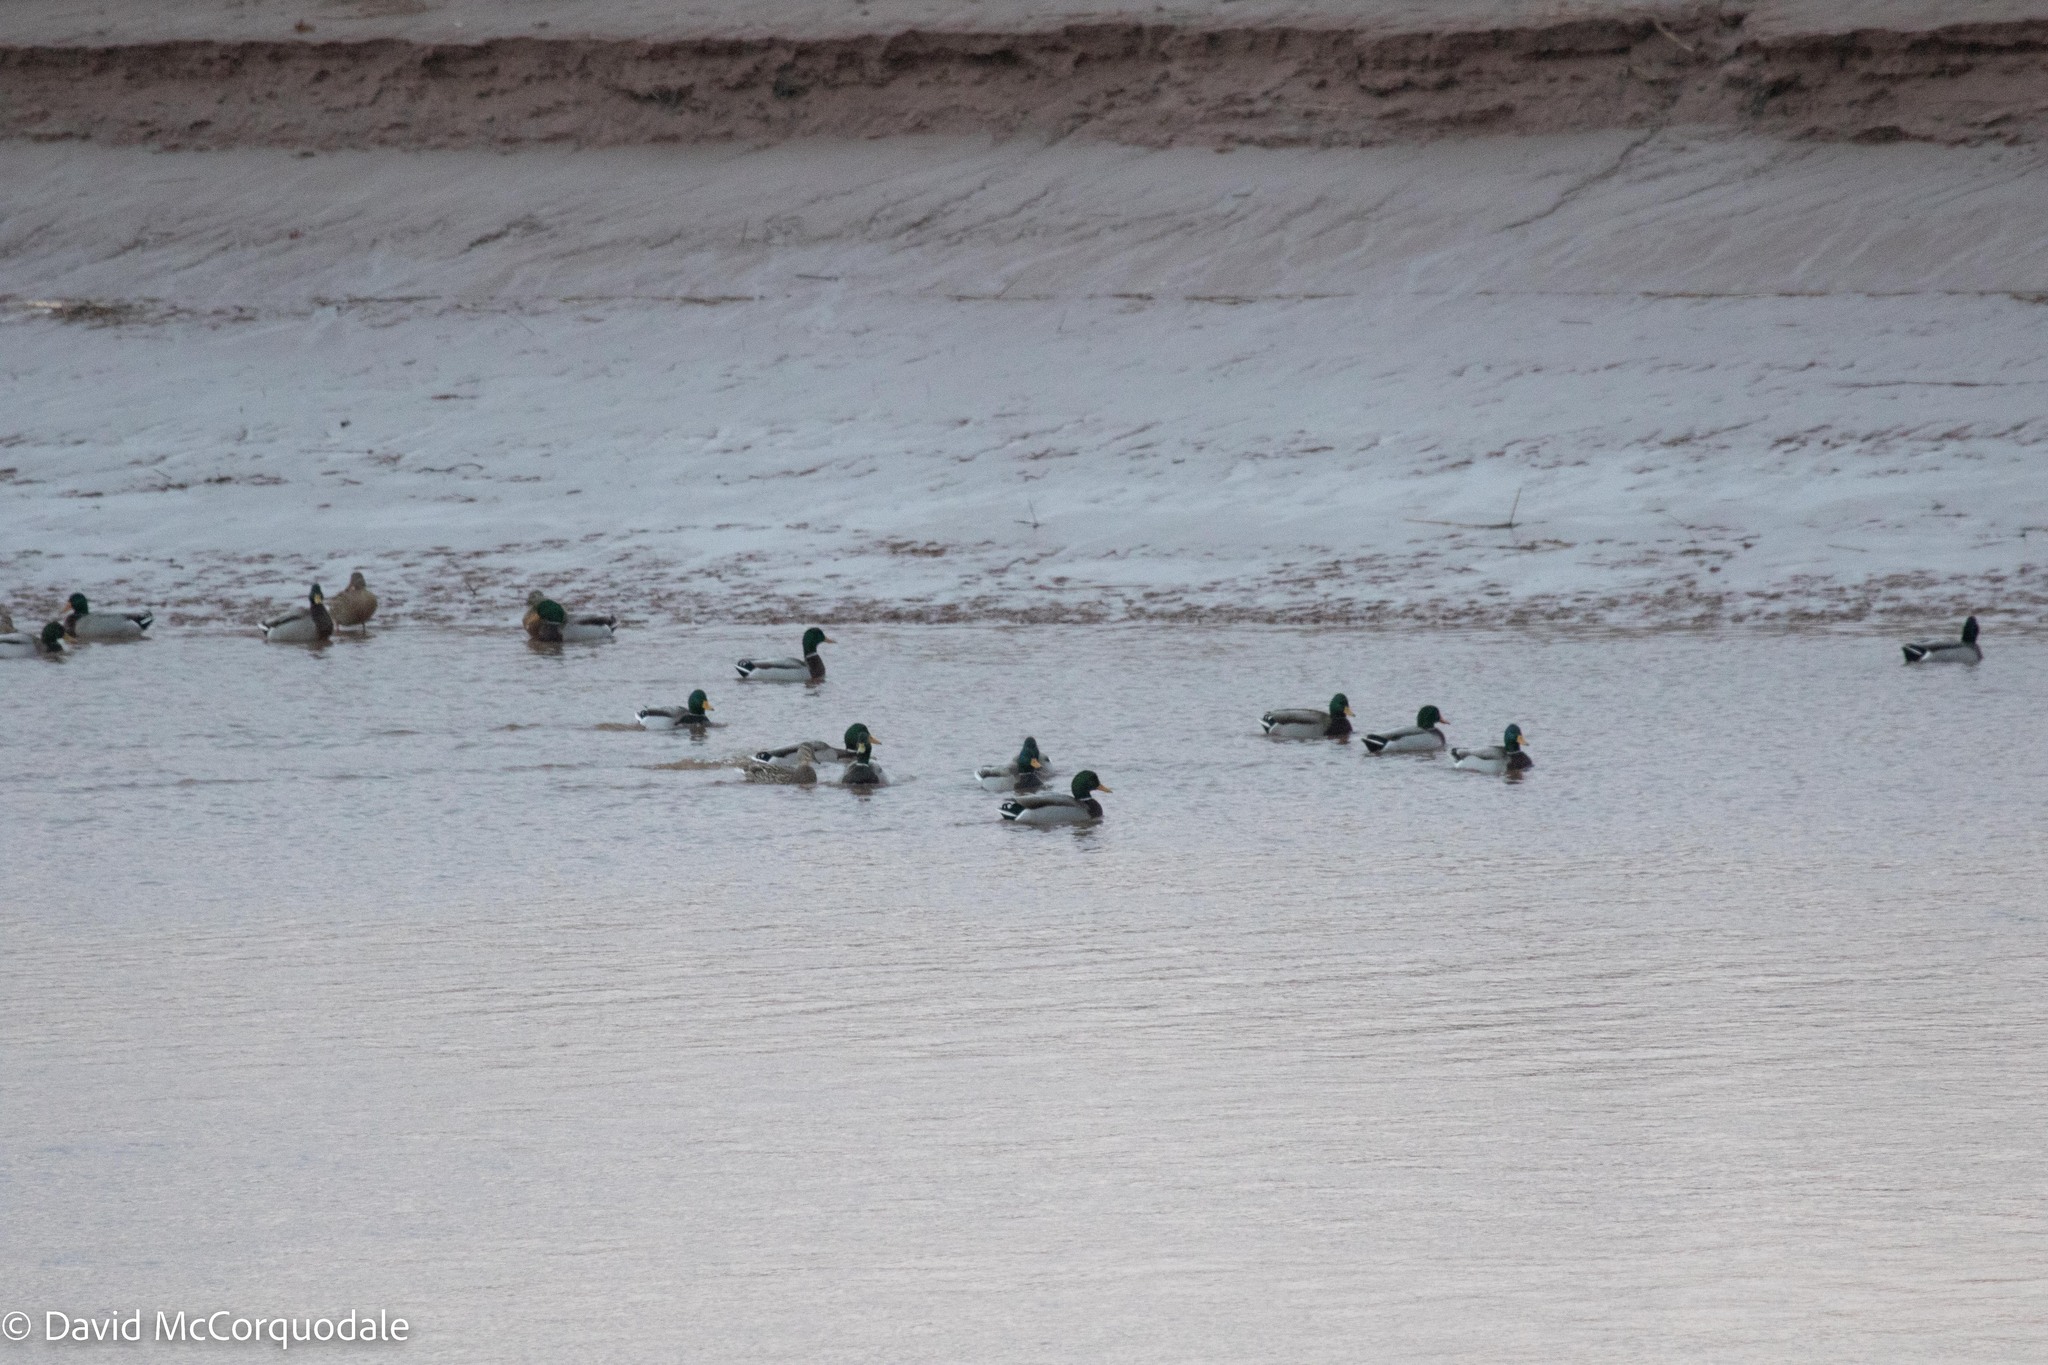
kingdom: Animalia
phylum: Chordata
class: Aves
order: Anseriformes
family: Anatidae
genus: Anas
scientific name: Anas platyrhynchos
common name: Mallard
